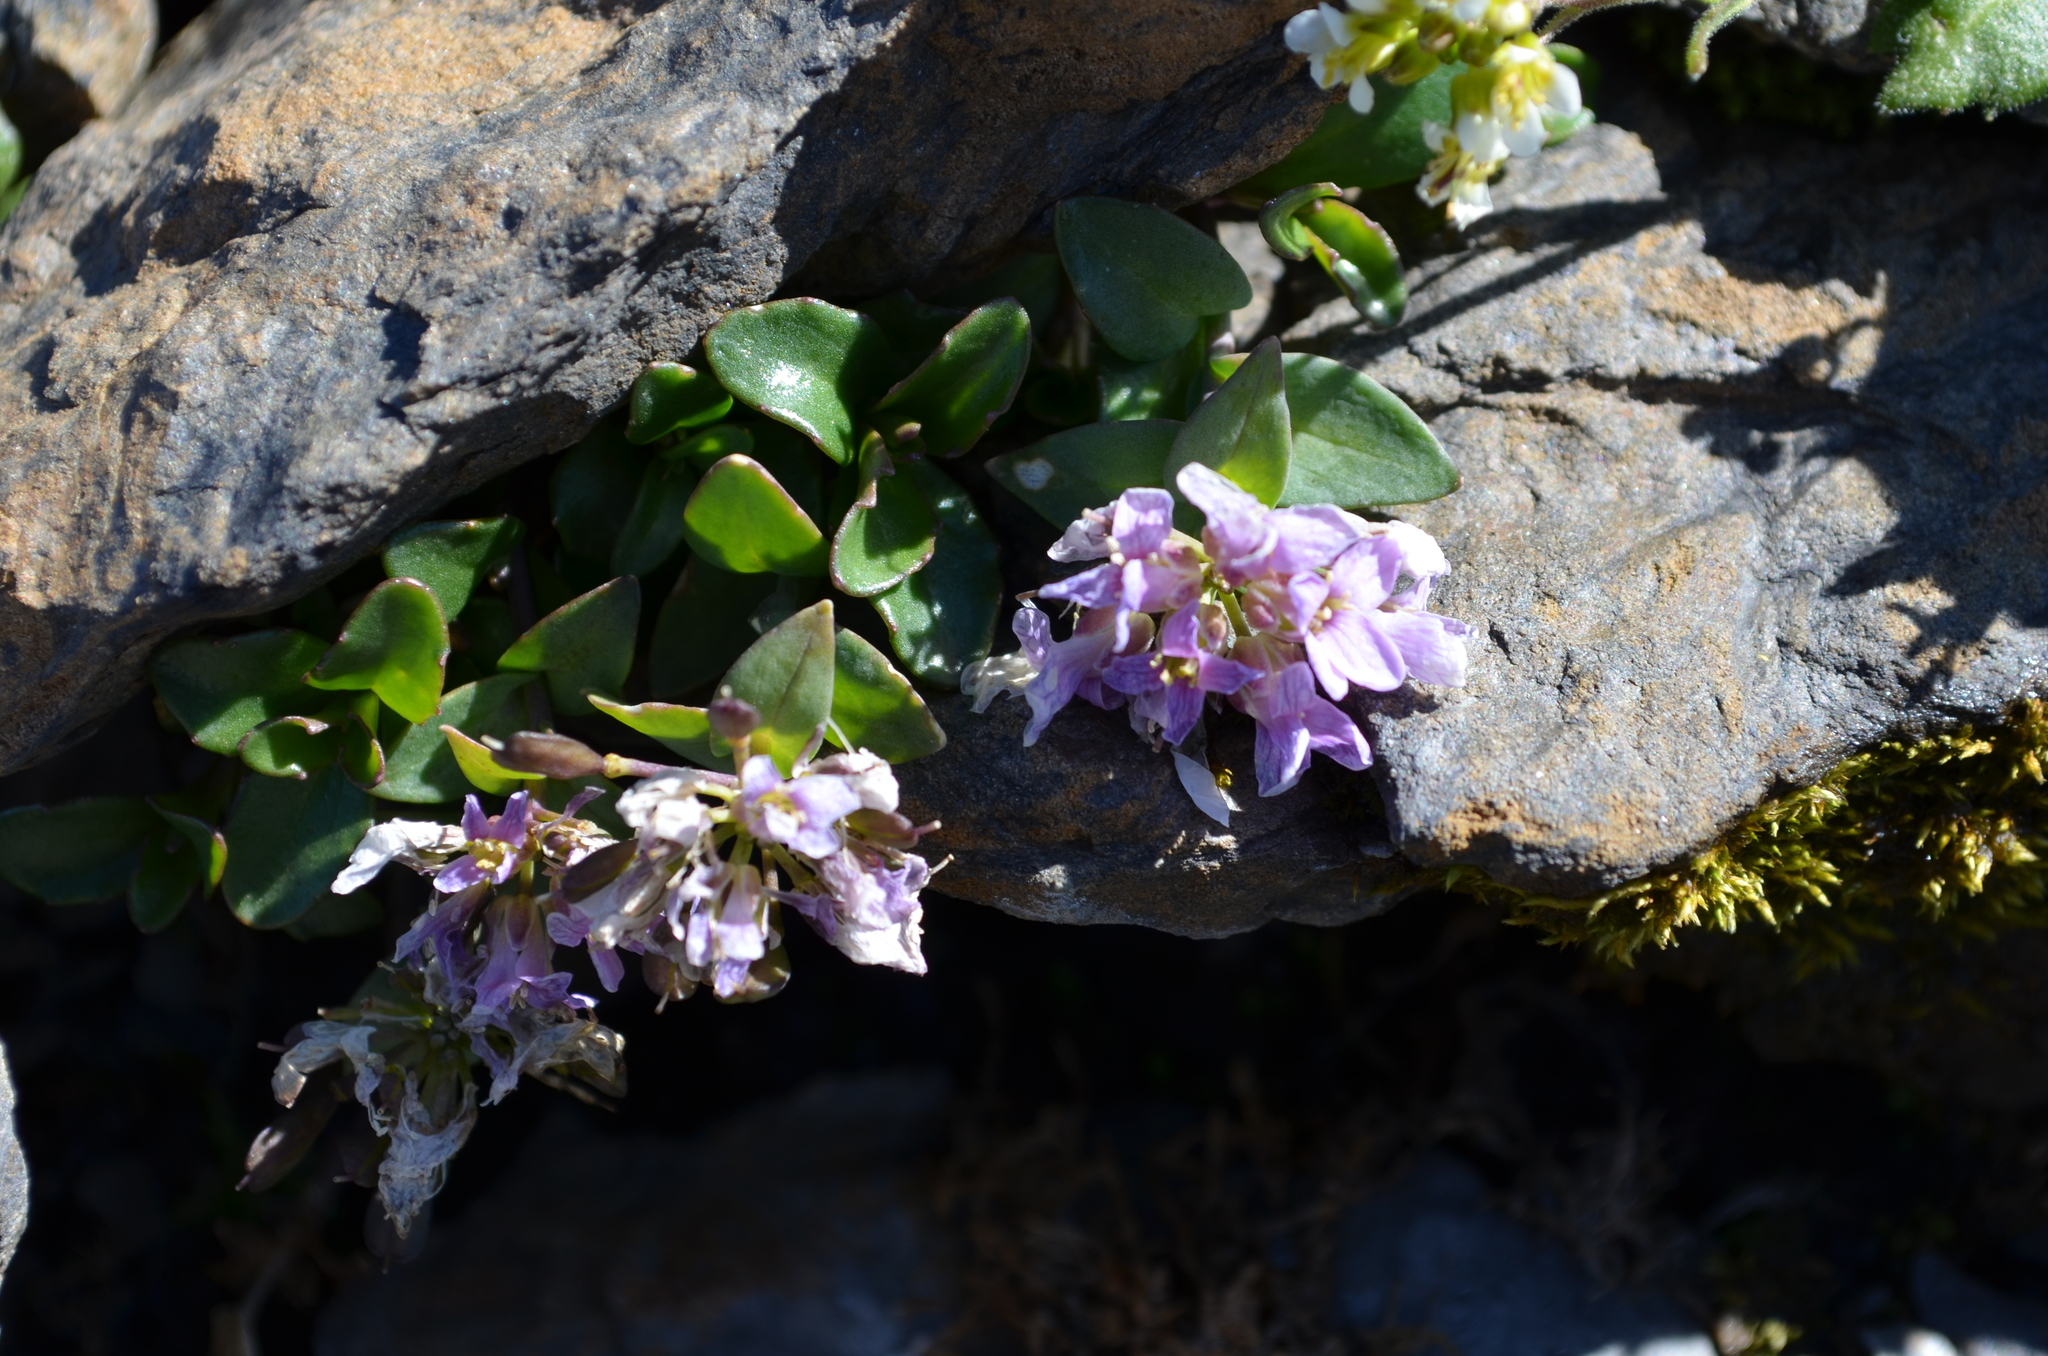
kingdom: Plantae
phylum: Tracheophyta
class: Magnoliopsida
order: Brassicales
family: Brassicaceae
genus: Noccaea
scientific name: Noccaea rotundifolia
